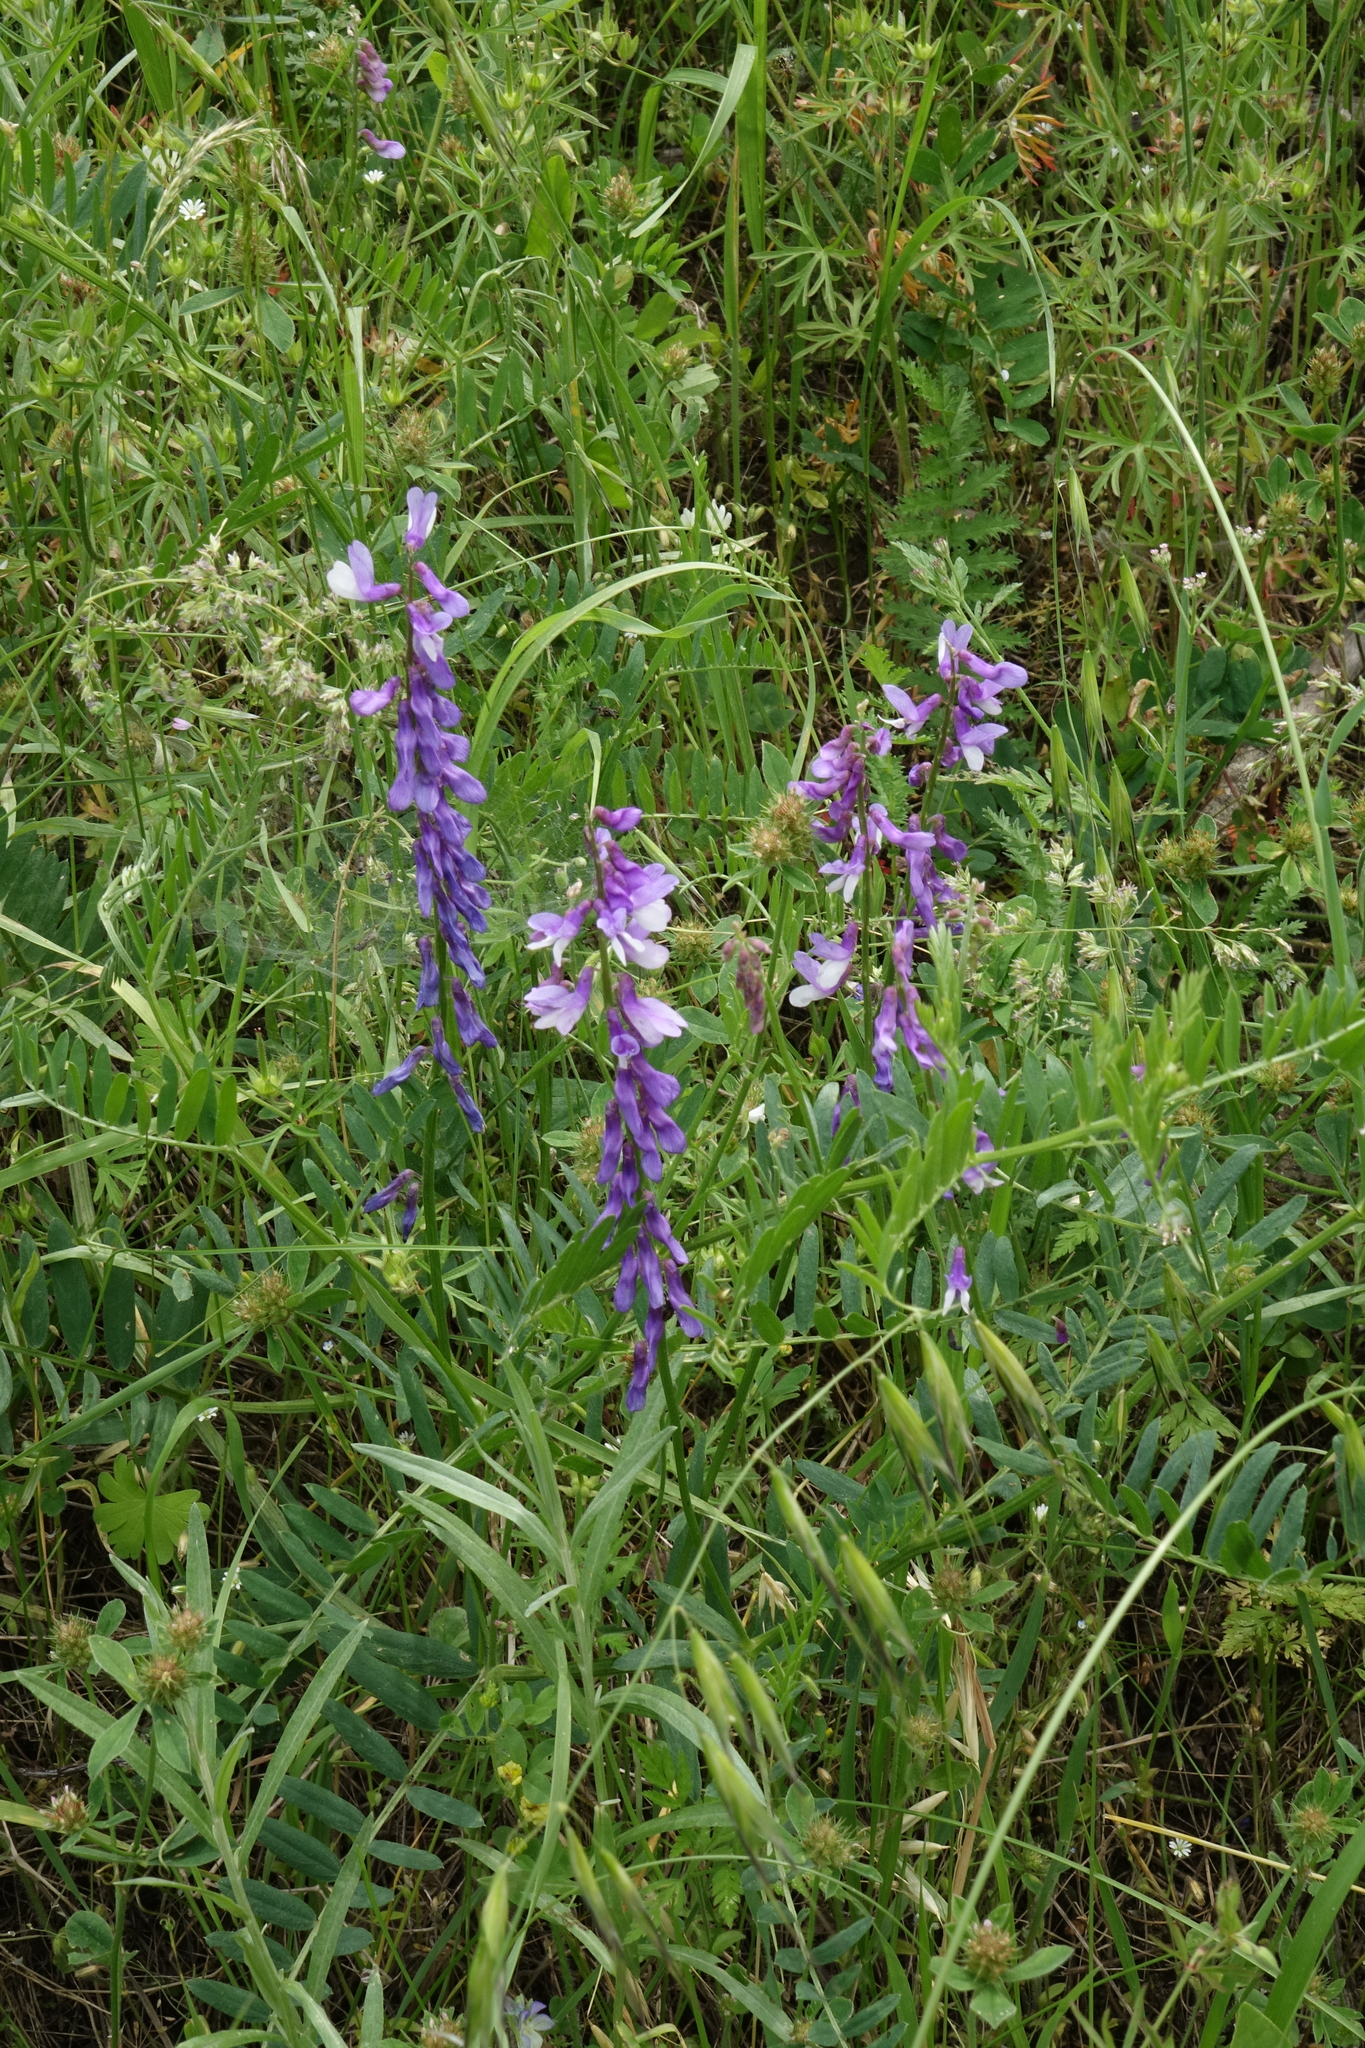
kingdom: Plantae
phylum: Tracheophyta
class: Magnoliopsida
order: Fabales
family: Fabaceae
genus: Vicia
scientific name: Vicia tenuifolia
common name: Fine-leaved vetch
